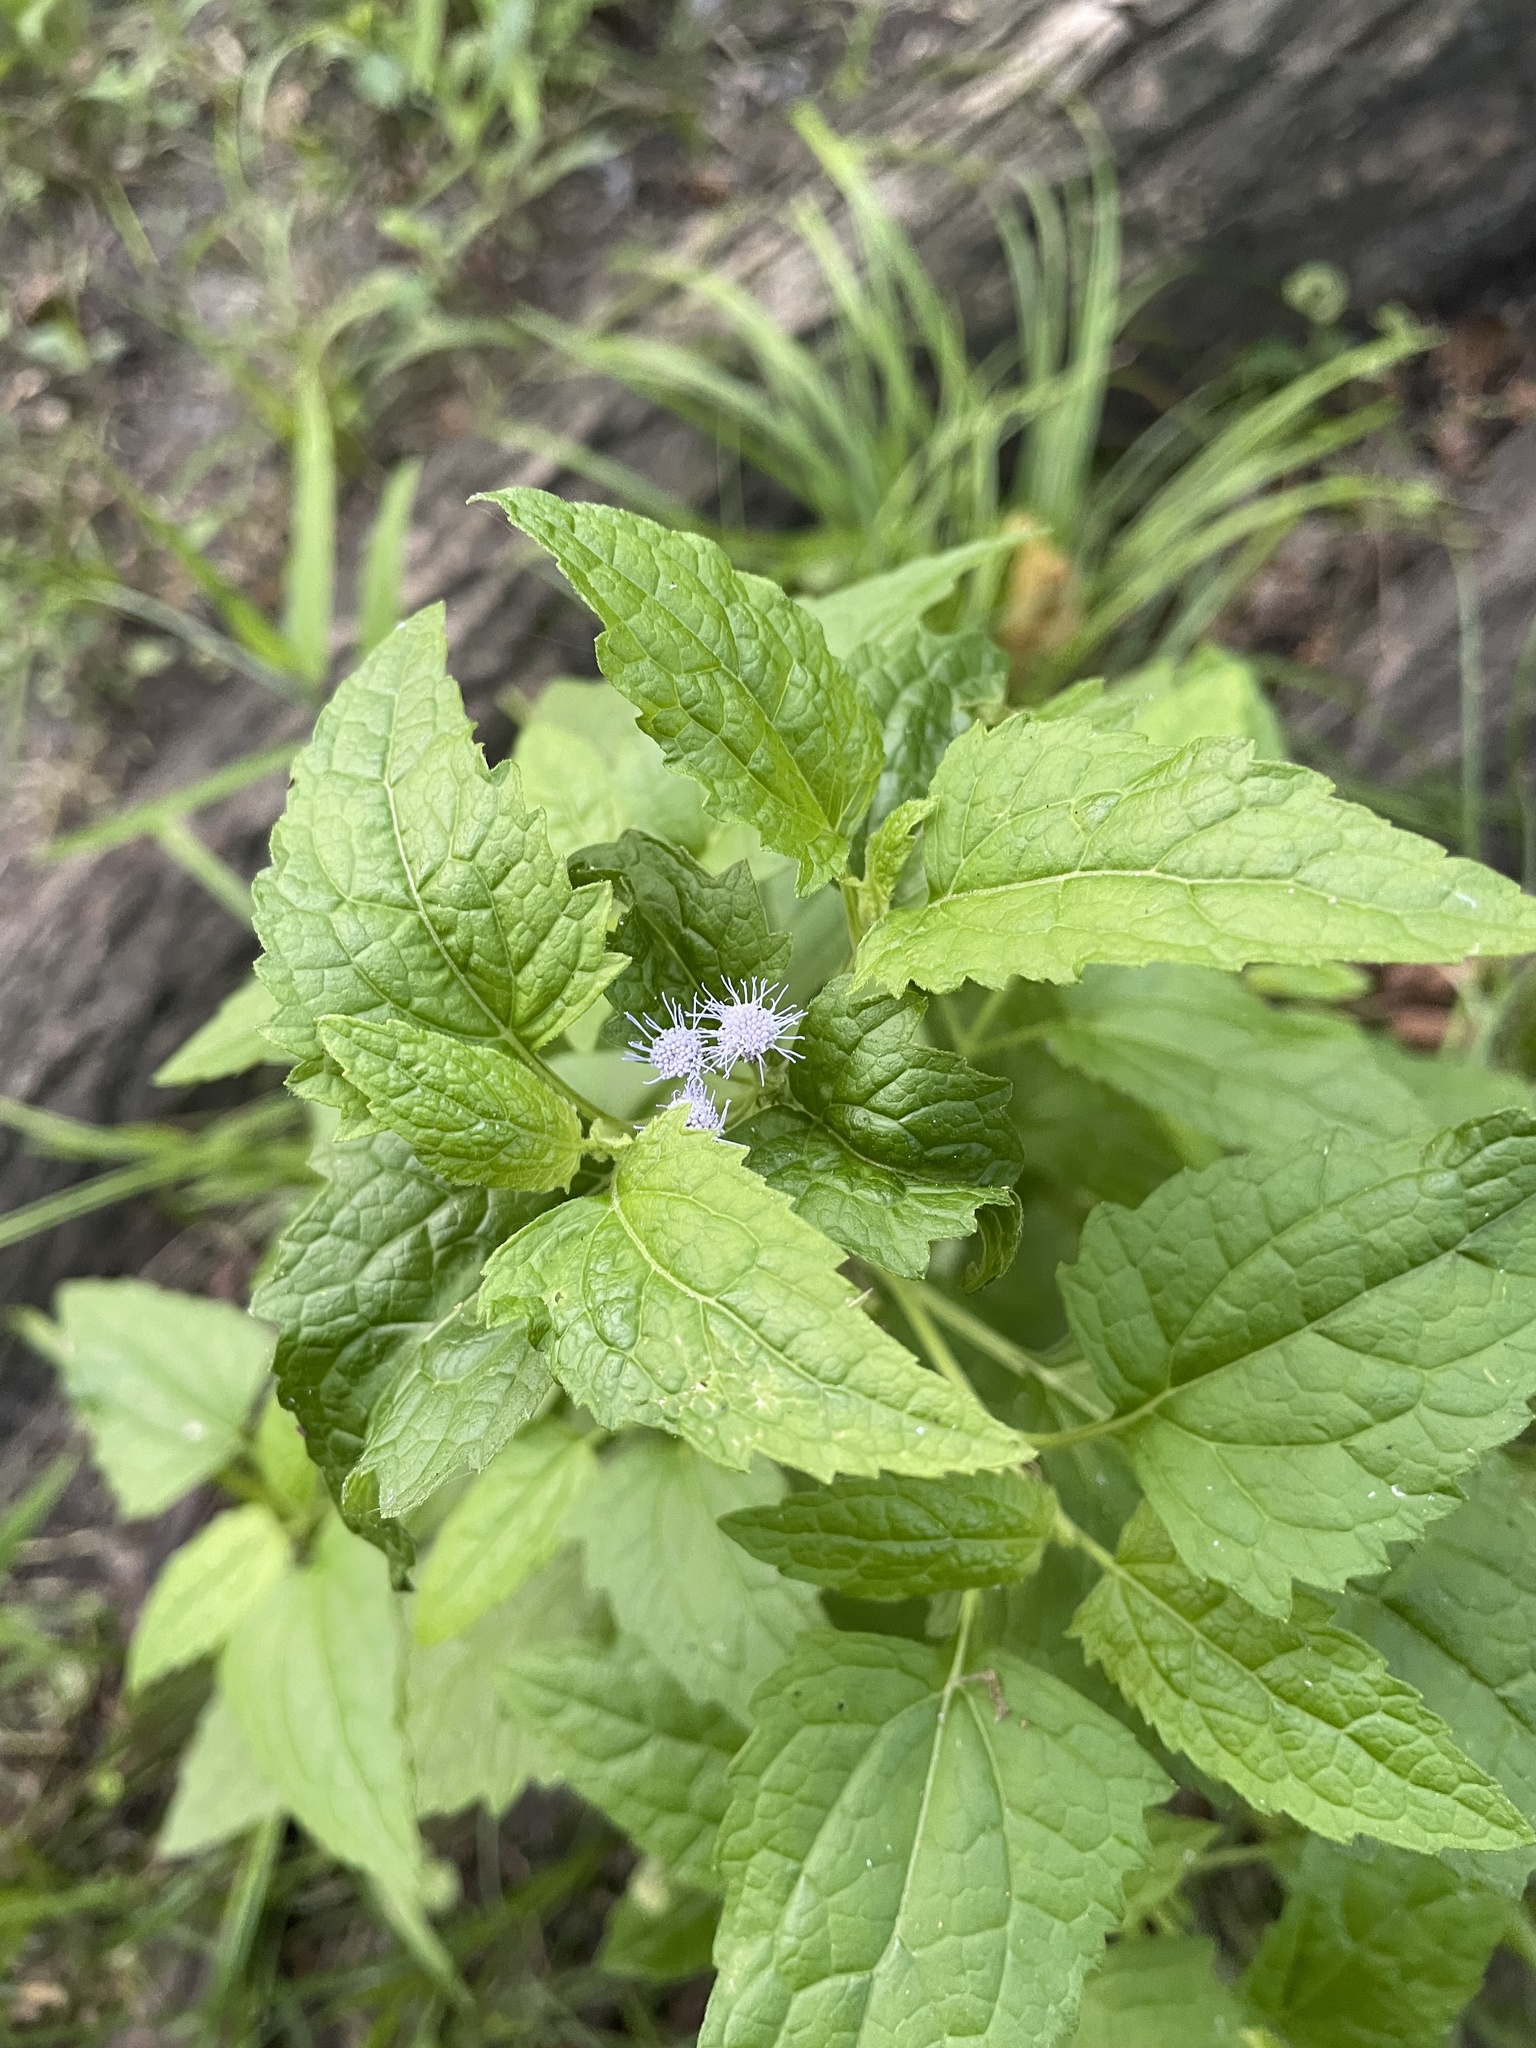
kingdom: Plantae
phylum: Tracheophyta
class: Magnoliopsida
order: Asterales
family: Asteraceae
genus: Conoclinium
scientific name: Conoclinium coelestinum
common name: Blue mistflower
